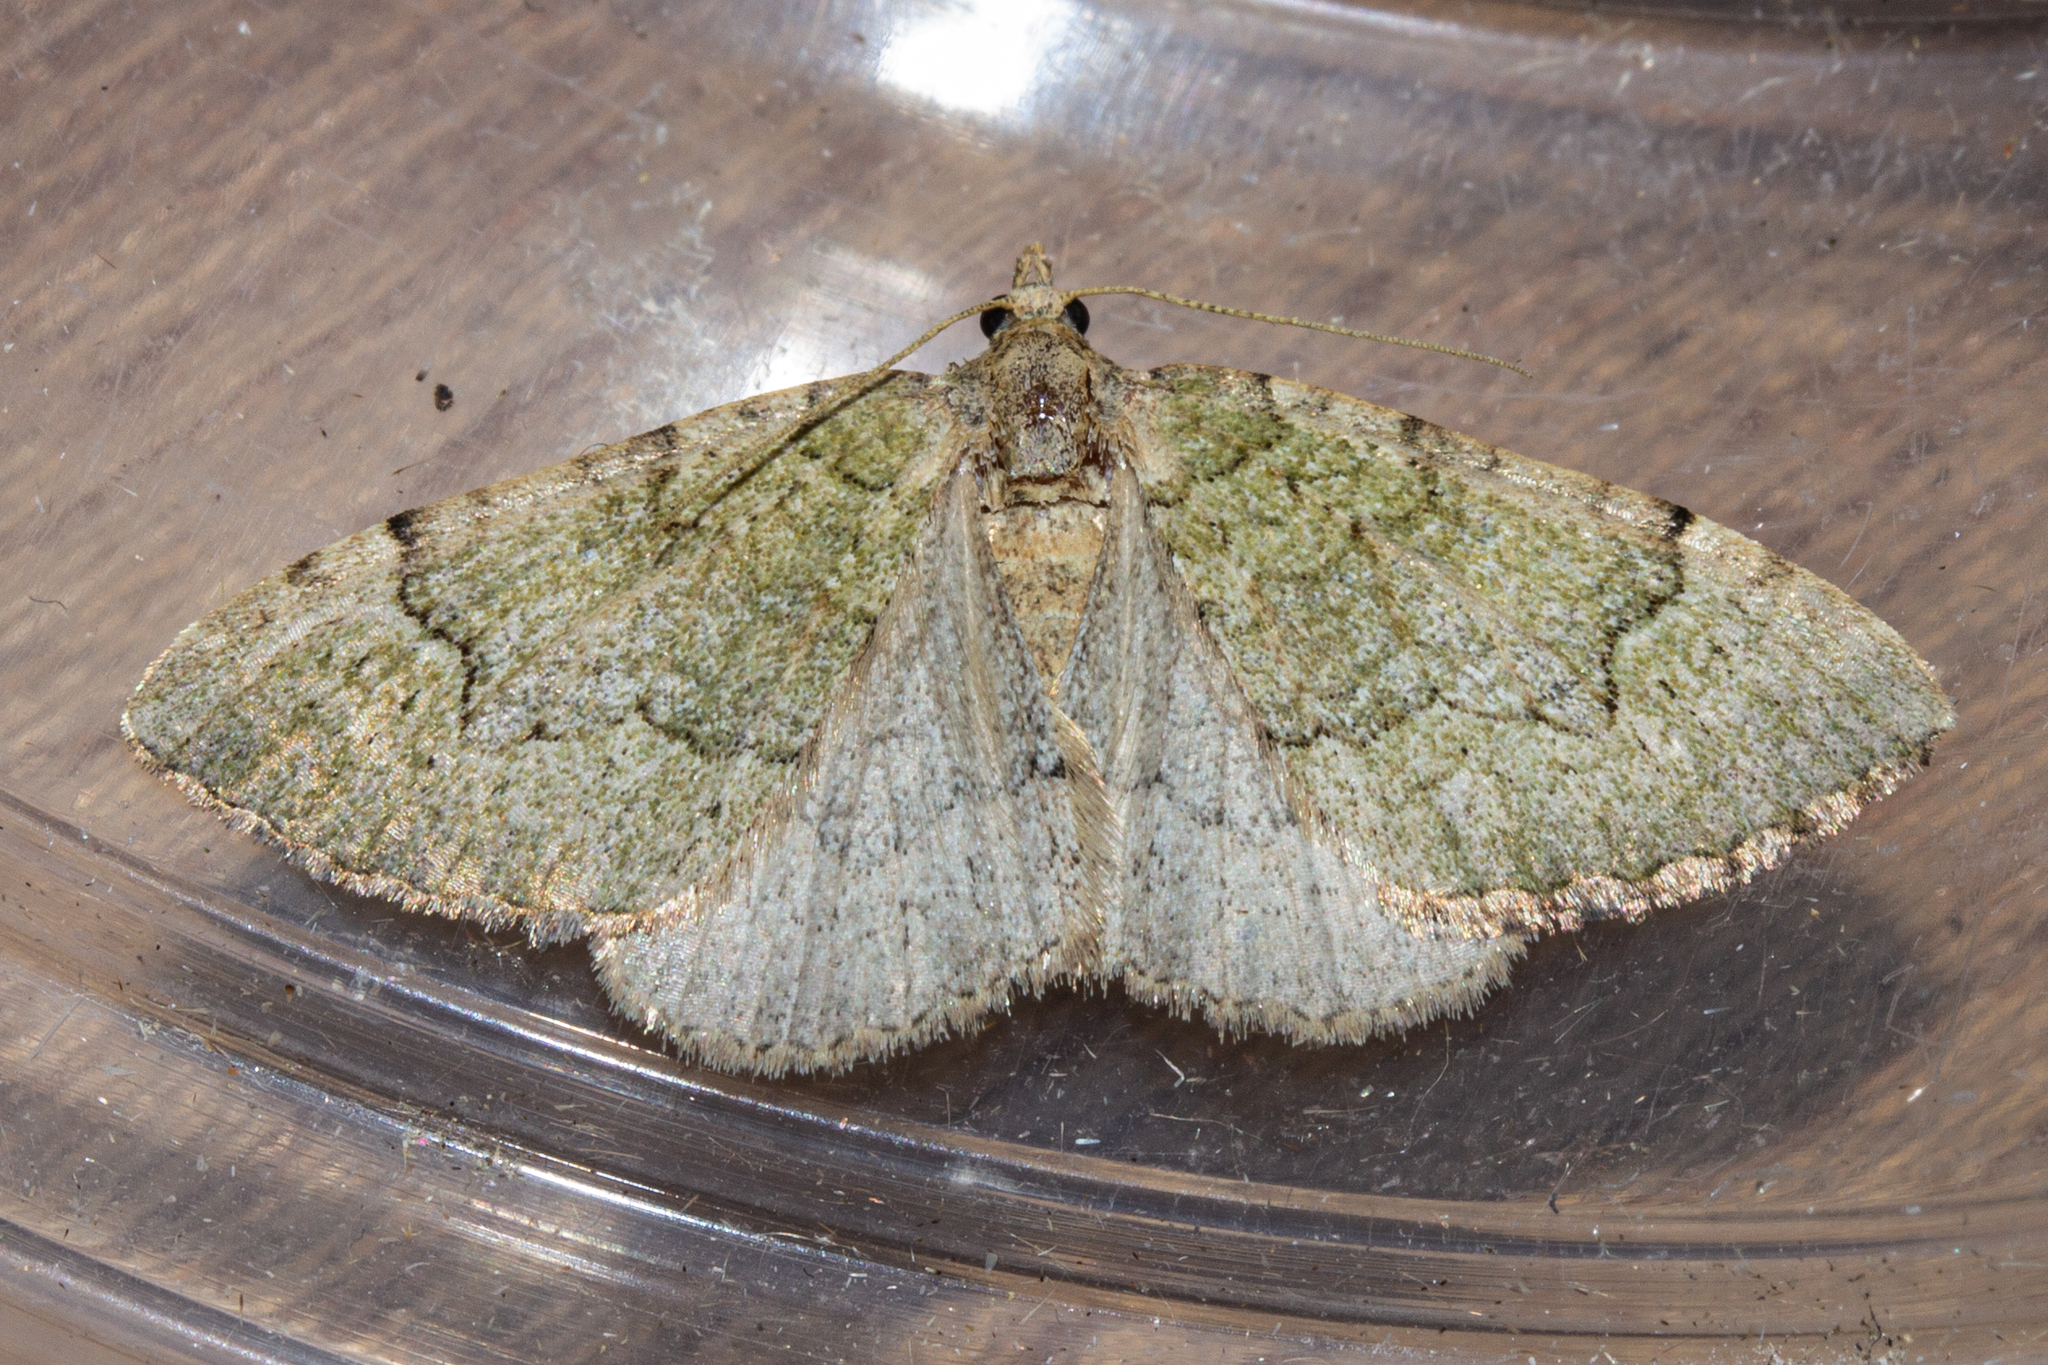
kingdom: Animalia
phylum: Arthropoda
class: Insecta
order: Lepidoptera
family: Geometridae
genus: Epyaxa
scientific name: Epyaxa rosearia
